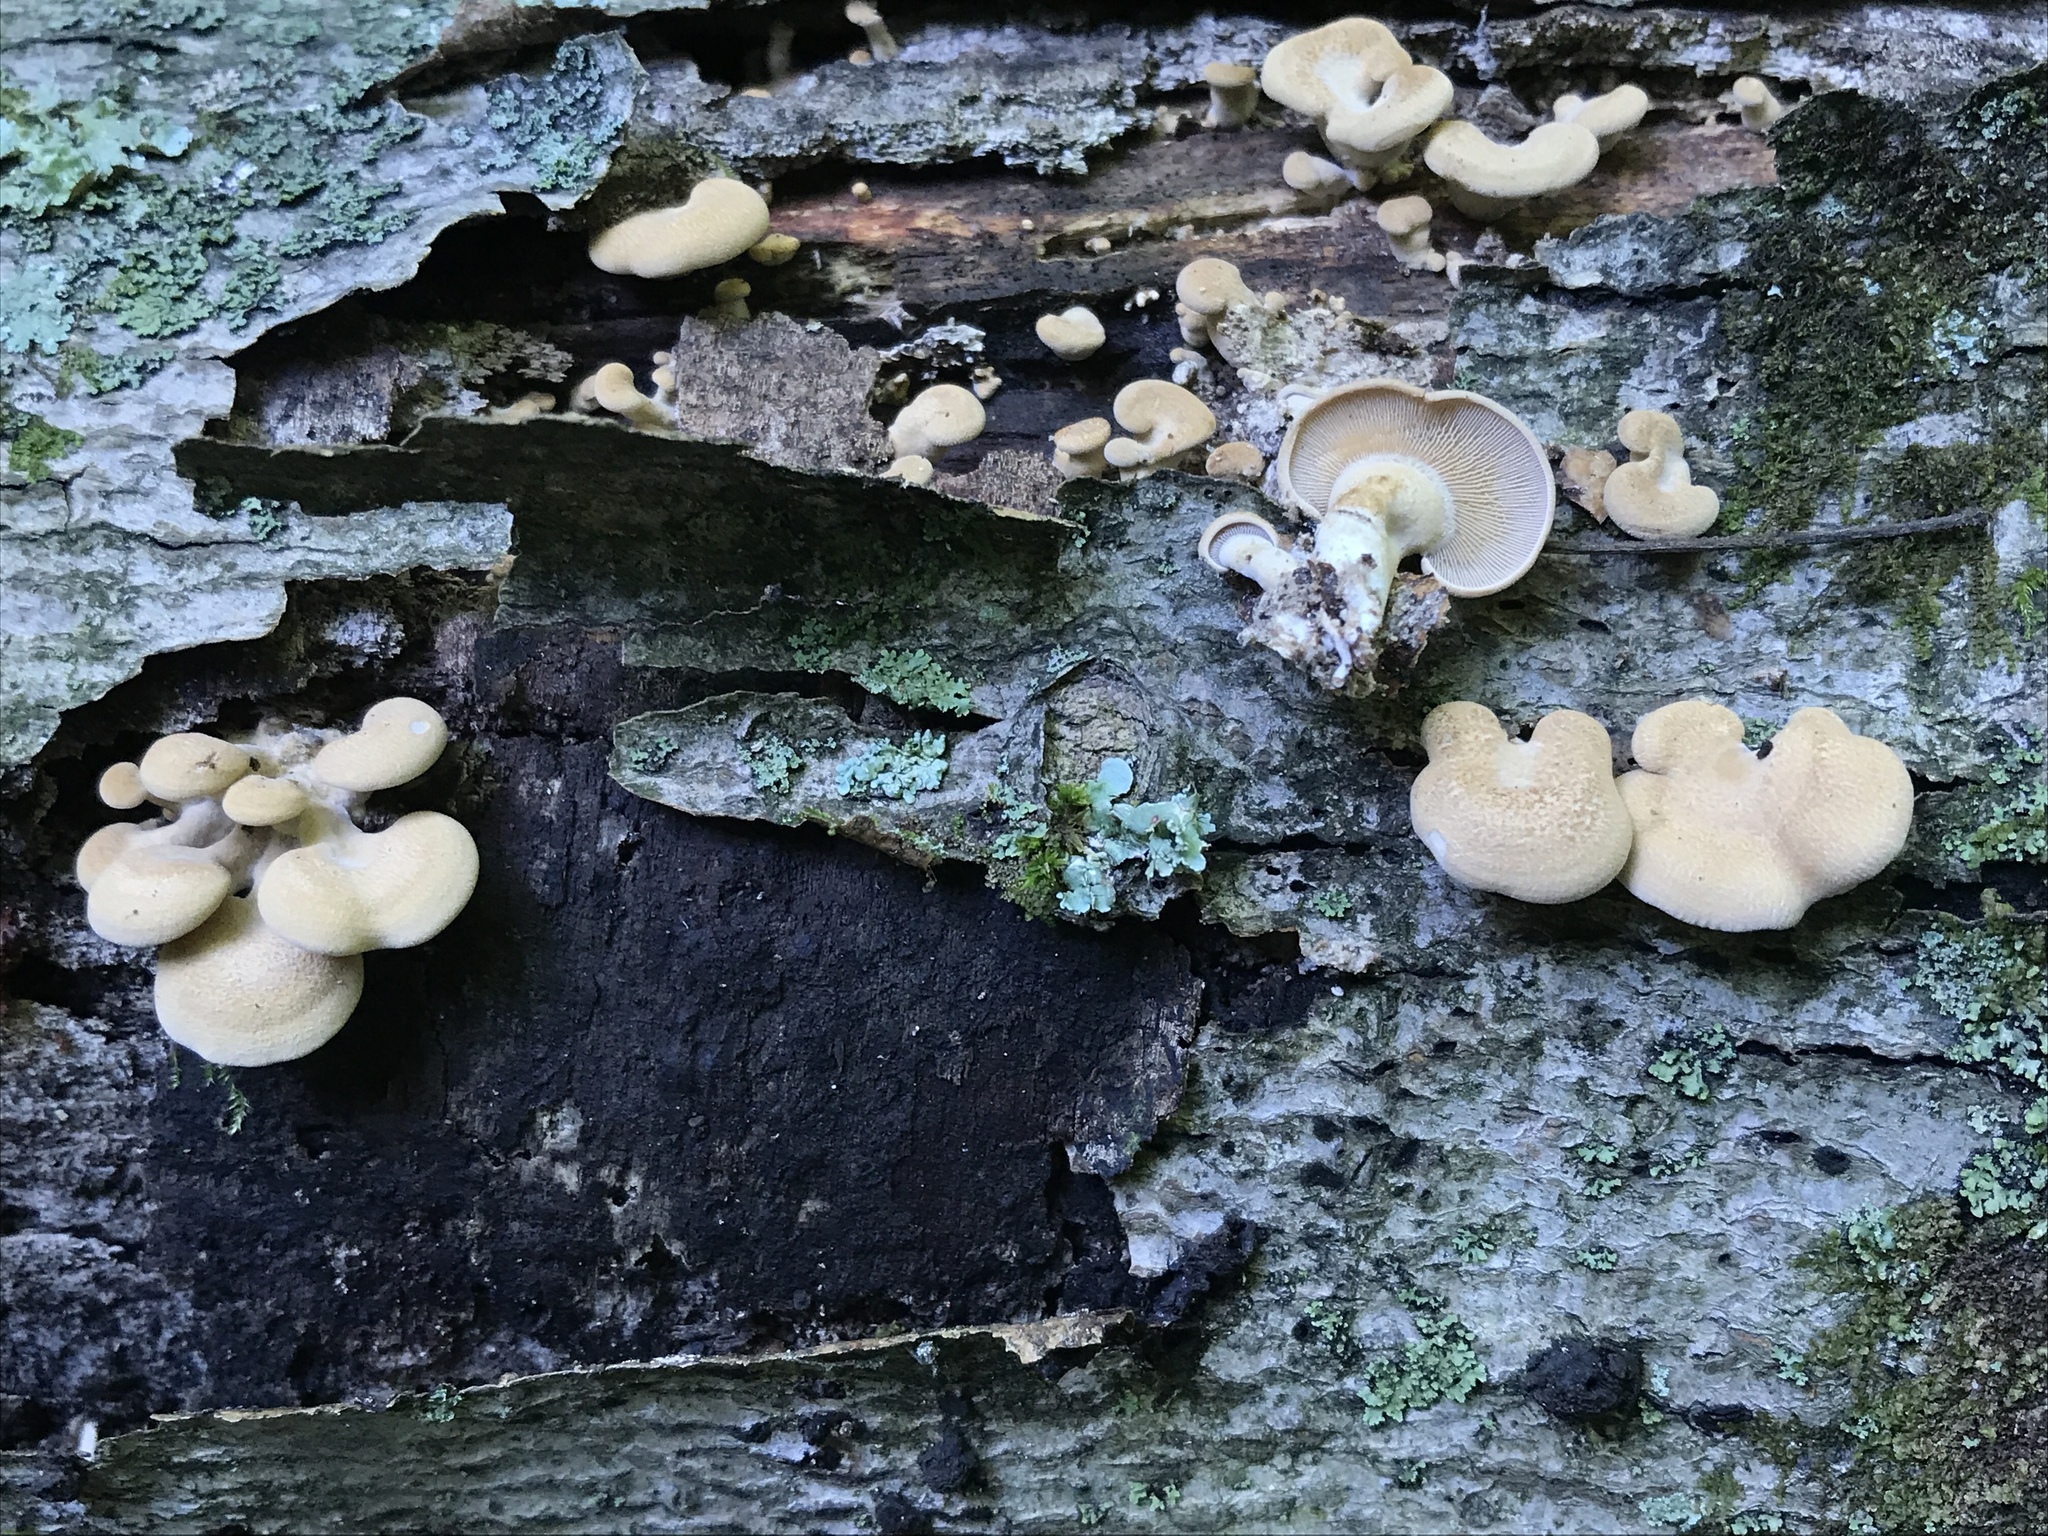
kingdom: Fungi
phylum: Basidiomycota
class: Agaricomycetes
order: Agaricales
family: Mycenaceae
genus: Panellus
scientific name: Panellus stipticus
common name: Bitter oysterling
